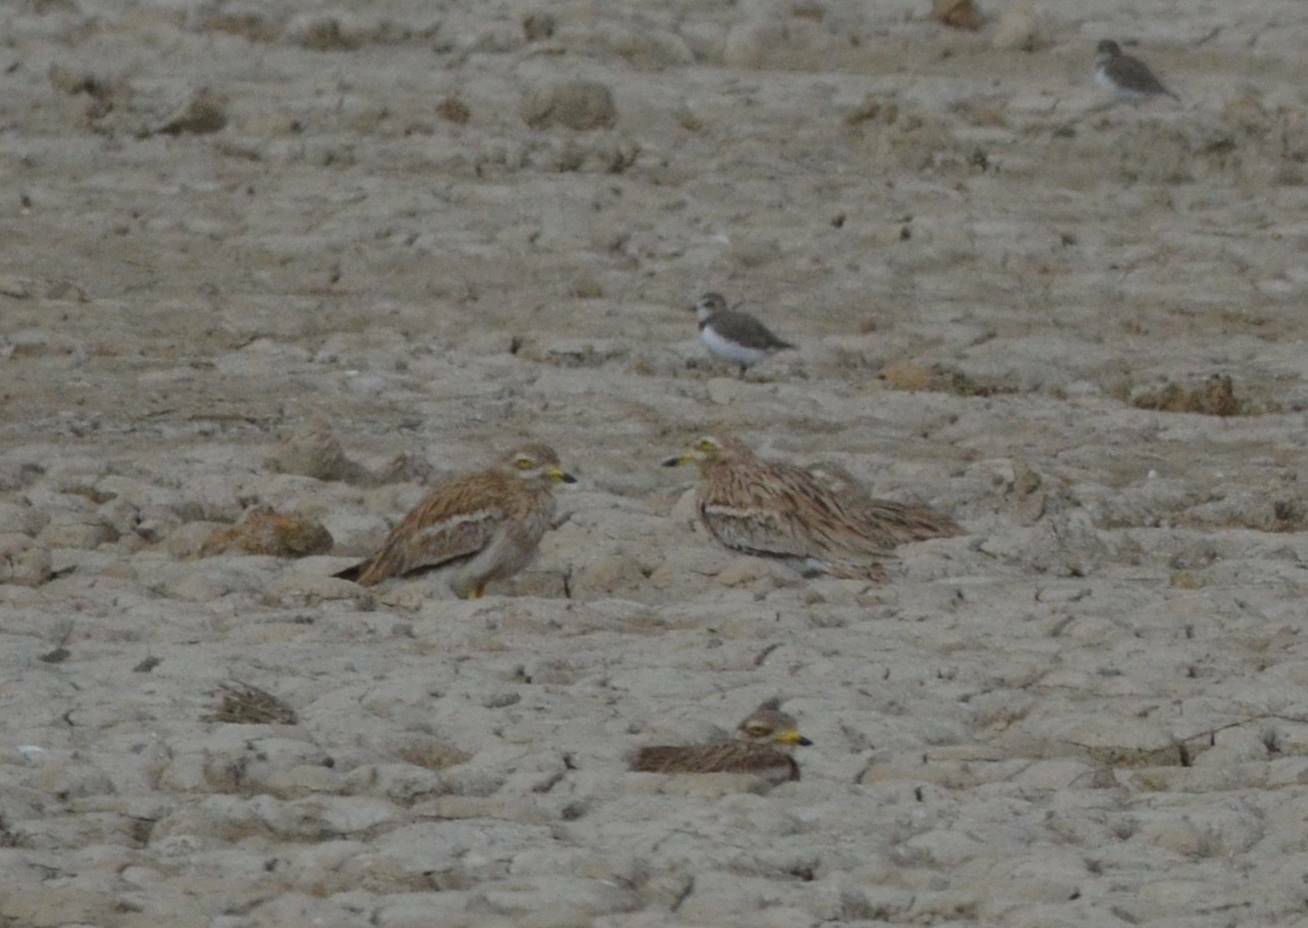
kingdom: Animalia
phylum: Chordata
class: Aves
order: Charadriiformes
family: Burhinidae
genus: Burhinus
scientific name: Burhinus oedicnemus
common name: Eurasian stone-curlew
